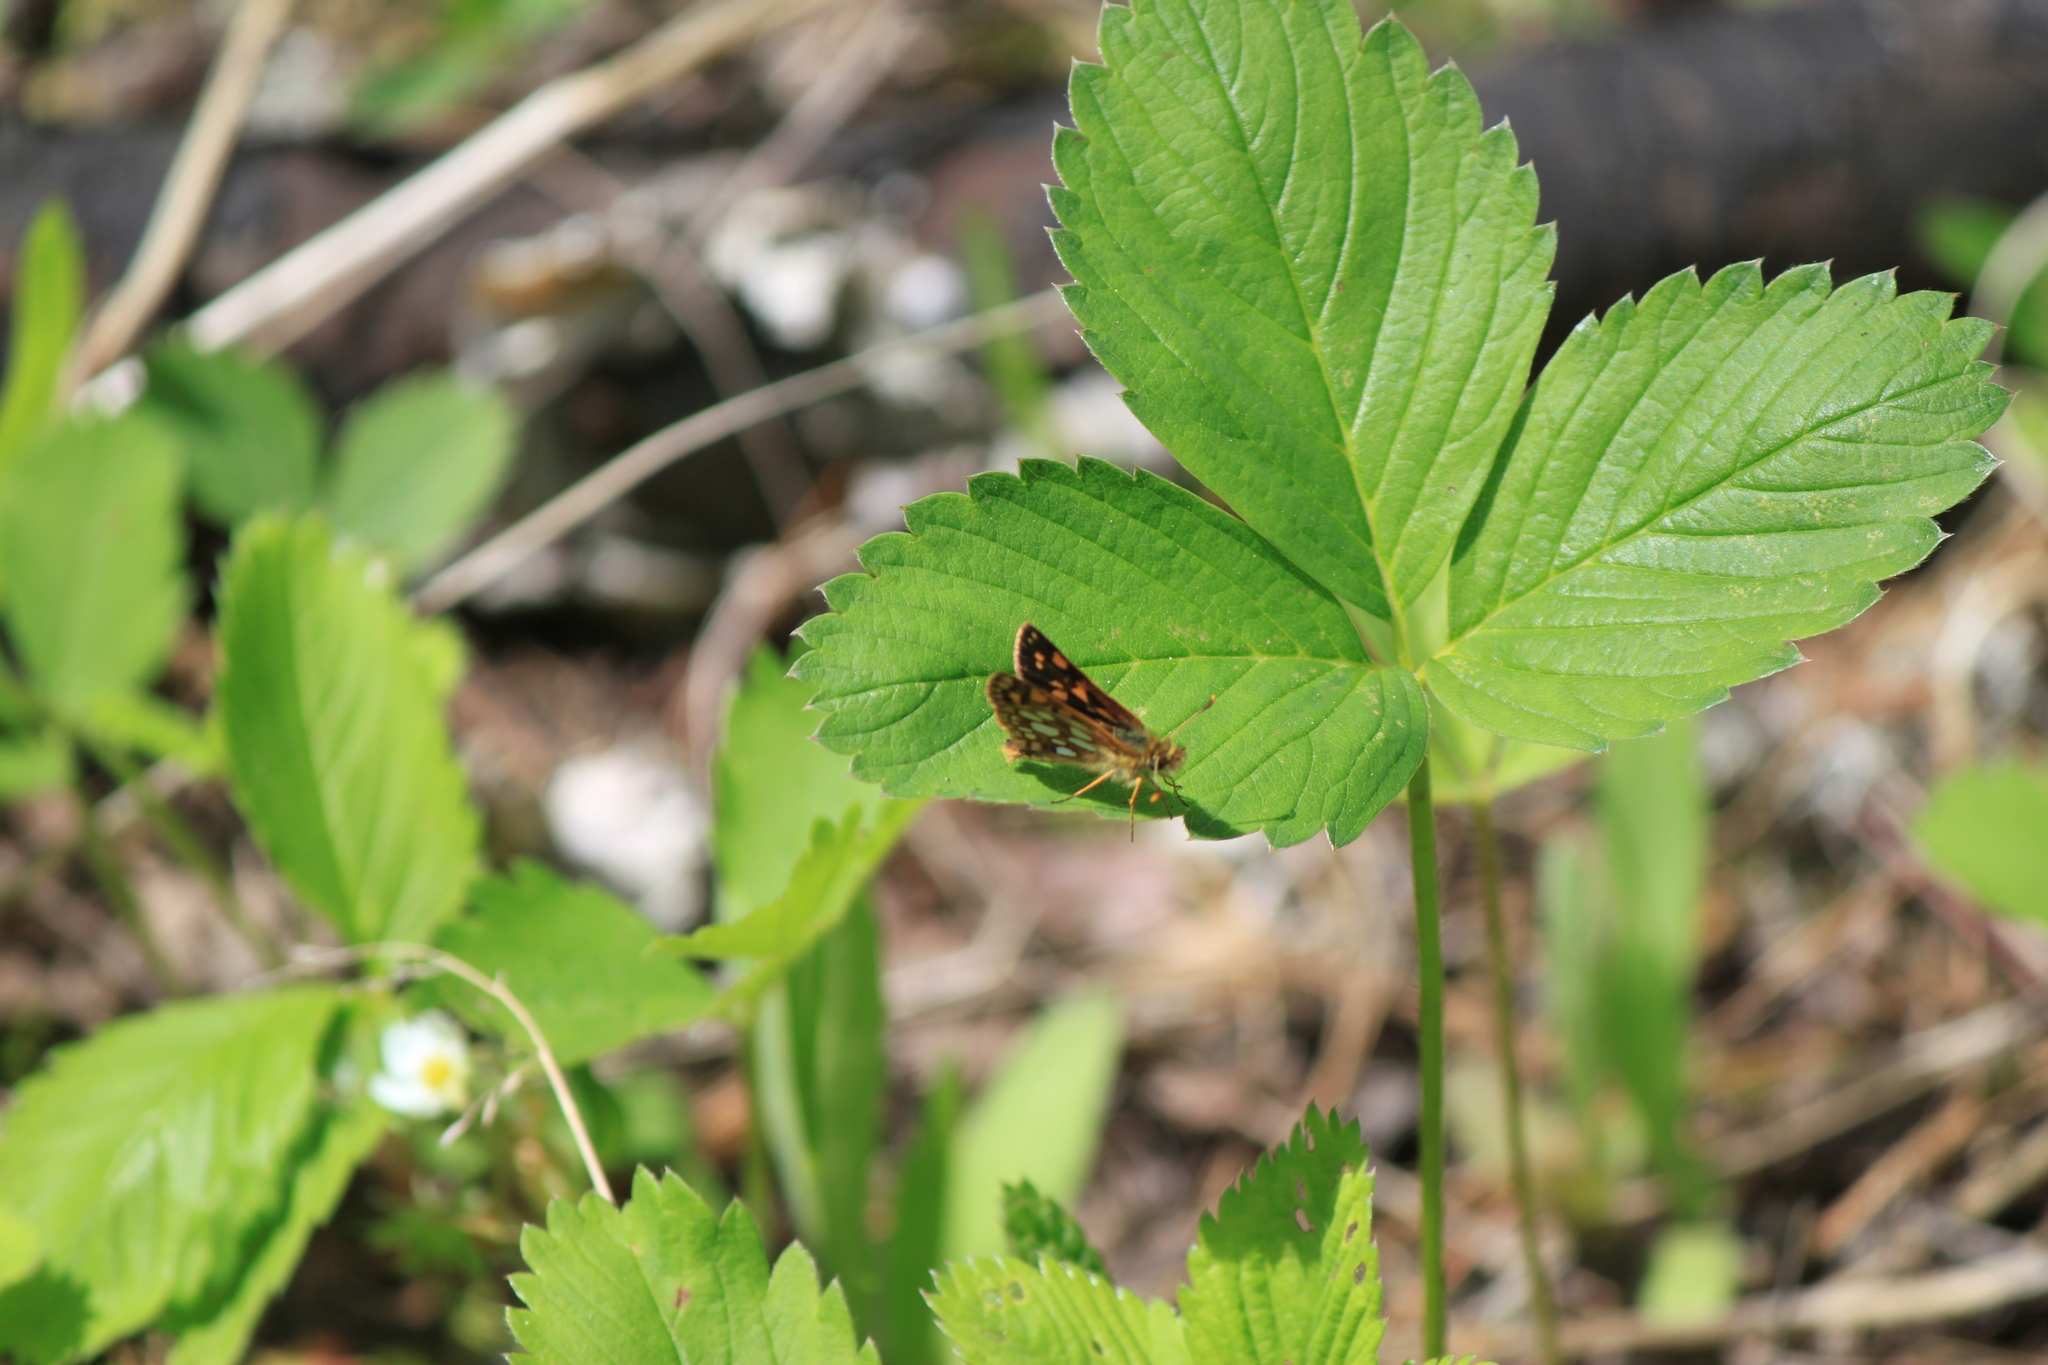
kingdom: Animalia
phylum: Arthropoda
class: Insecta
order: Lepidoptera
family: Hesperiidae
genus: Carterocephalus
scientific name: Carterocephalus mandan
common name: Arctic skipperling
